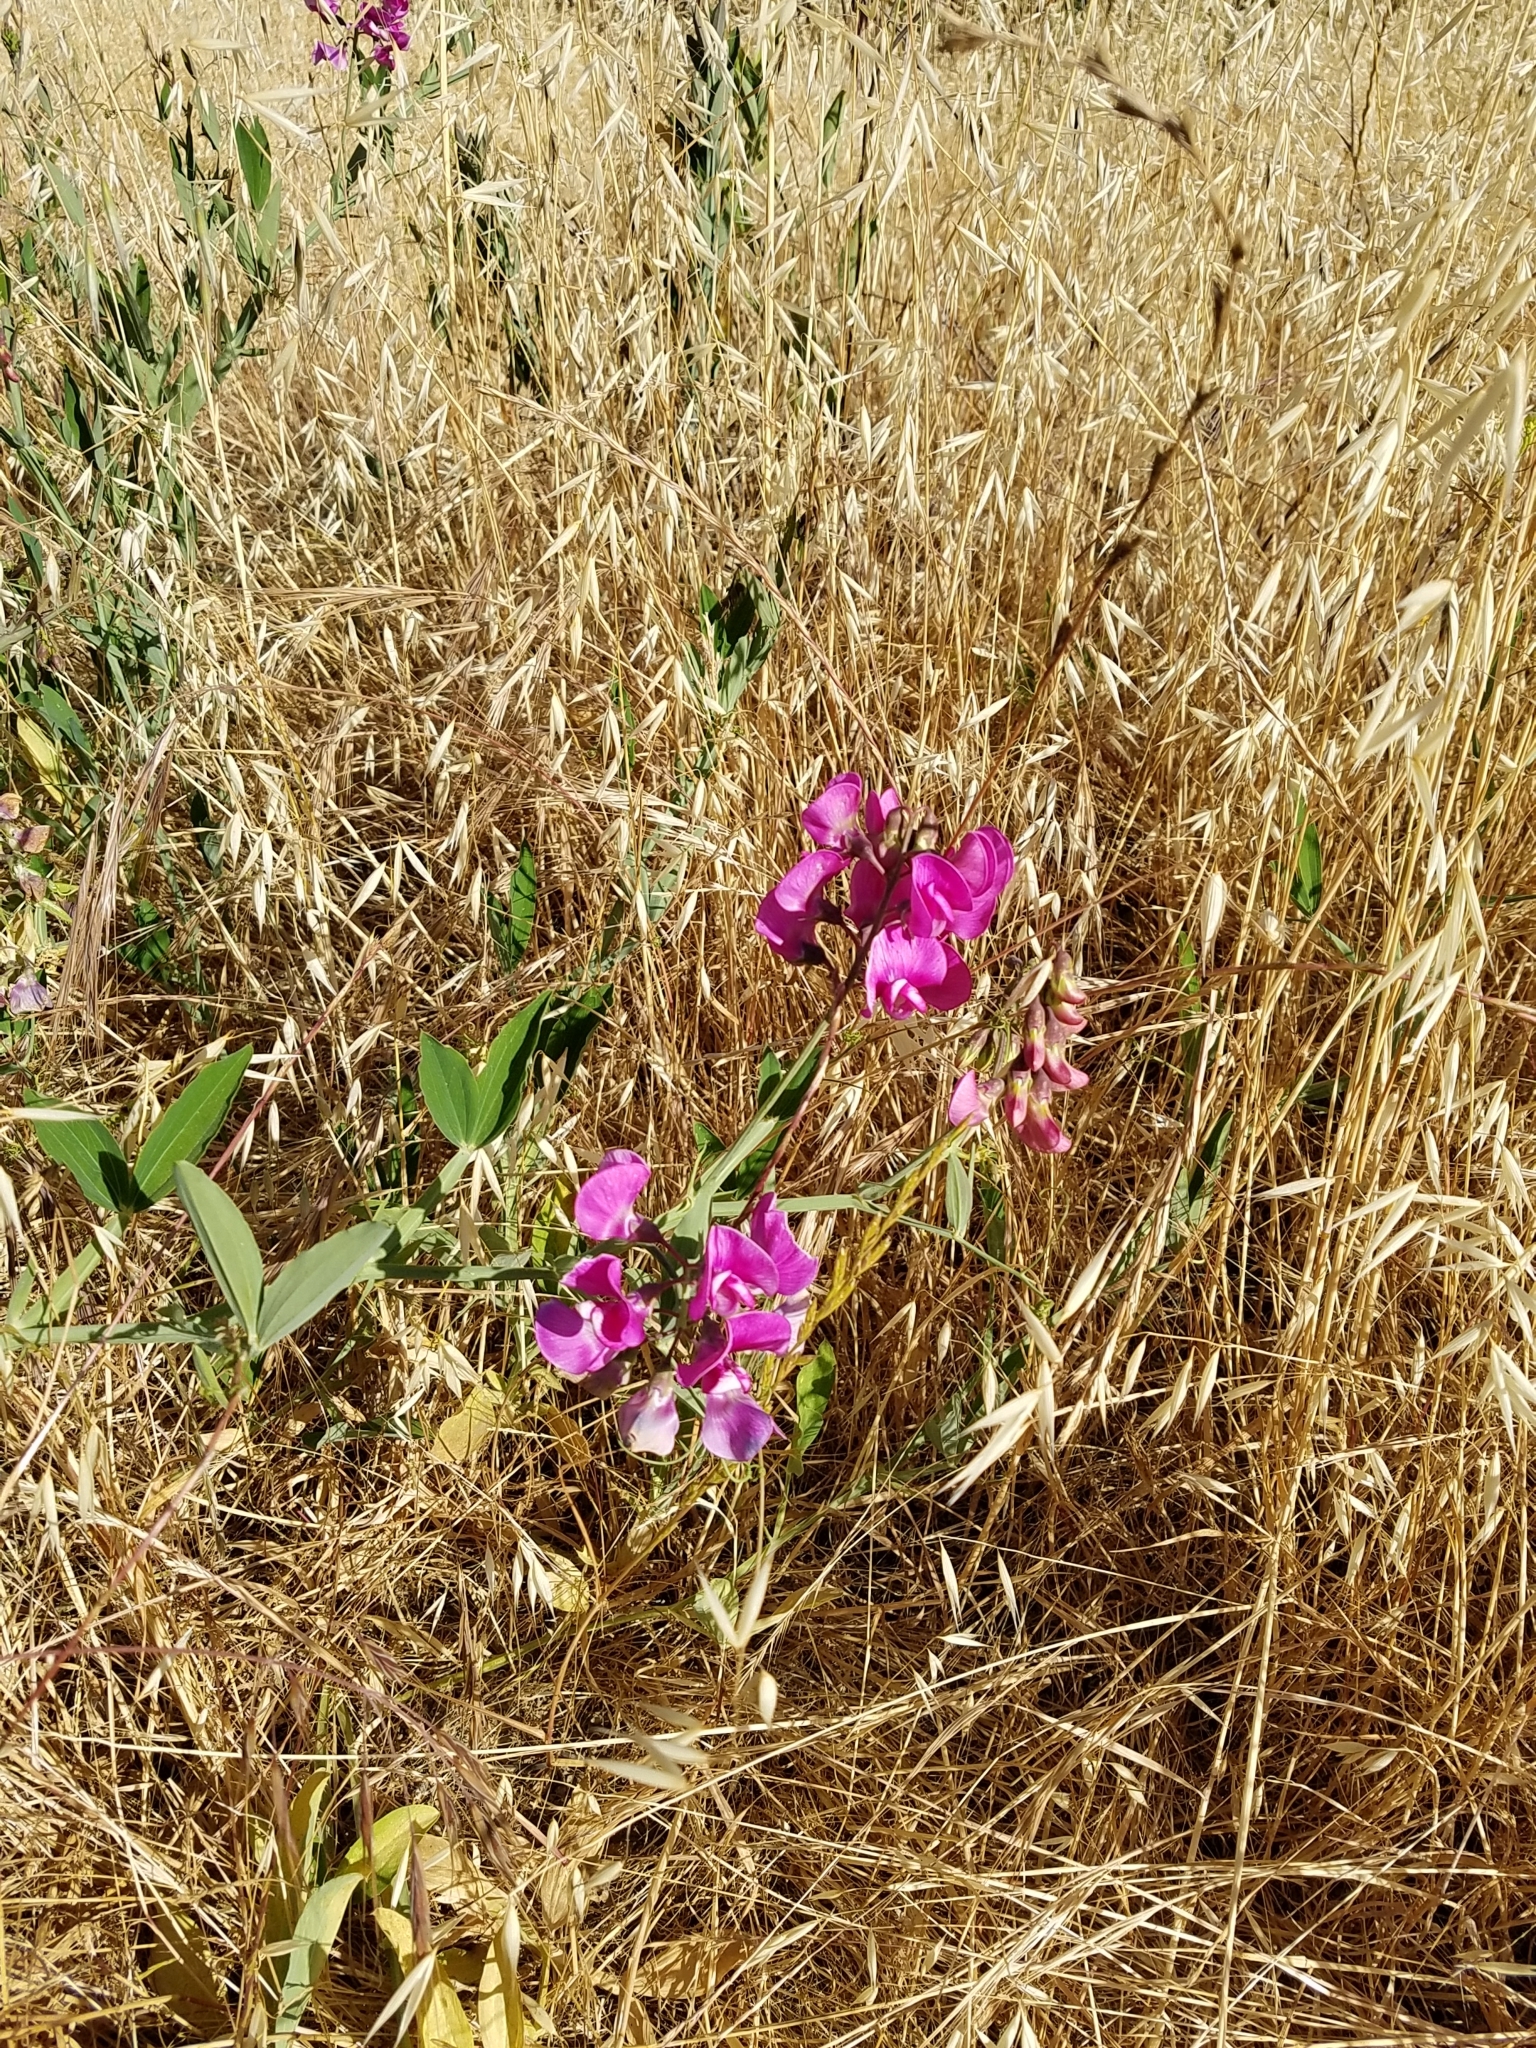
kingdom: Plantae
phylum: Tracheophyta
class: Magnoliopsida
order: Fabales
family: Fabaceae
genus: Lathyrus
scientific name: Lathyrus latifolius
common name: Perennial pea
